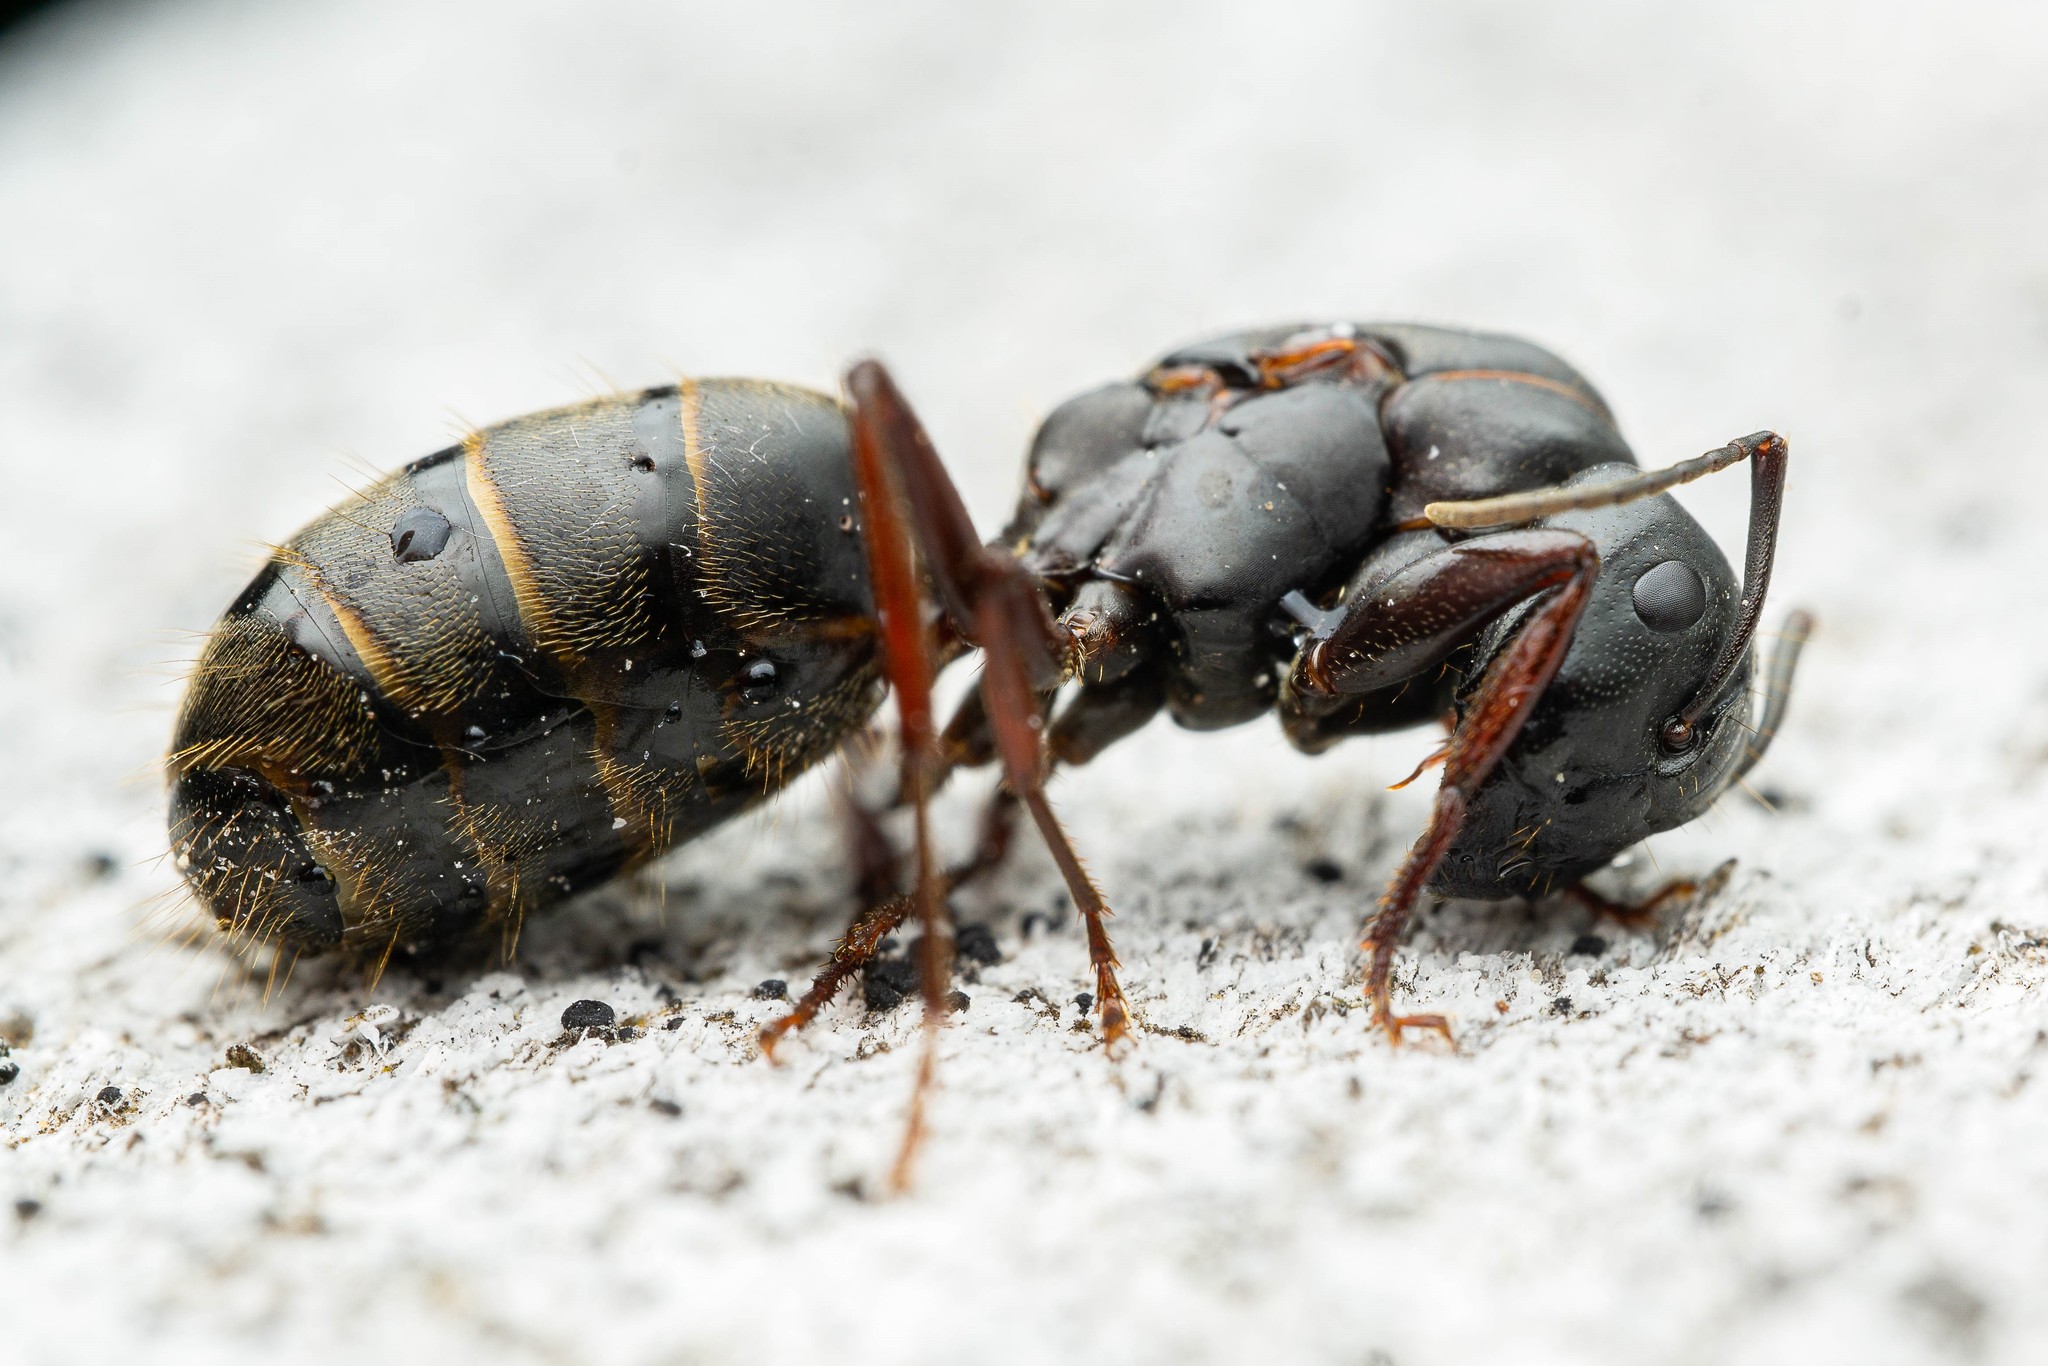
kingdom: Animalia
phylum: Arthropoda
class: Insecta
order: Hymenoptera
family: Formicidae
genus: Camponotus
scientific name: Camponotus modoc
